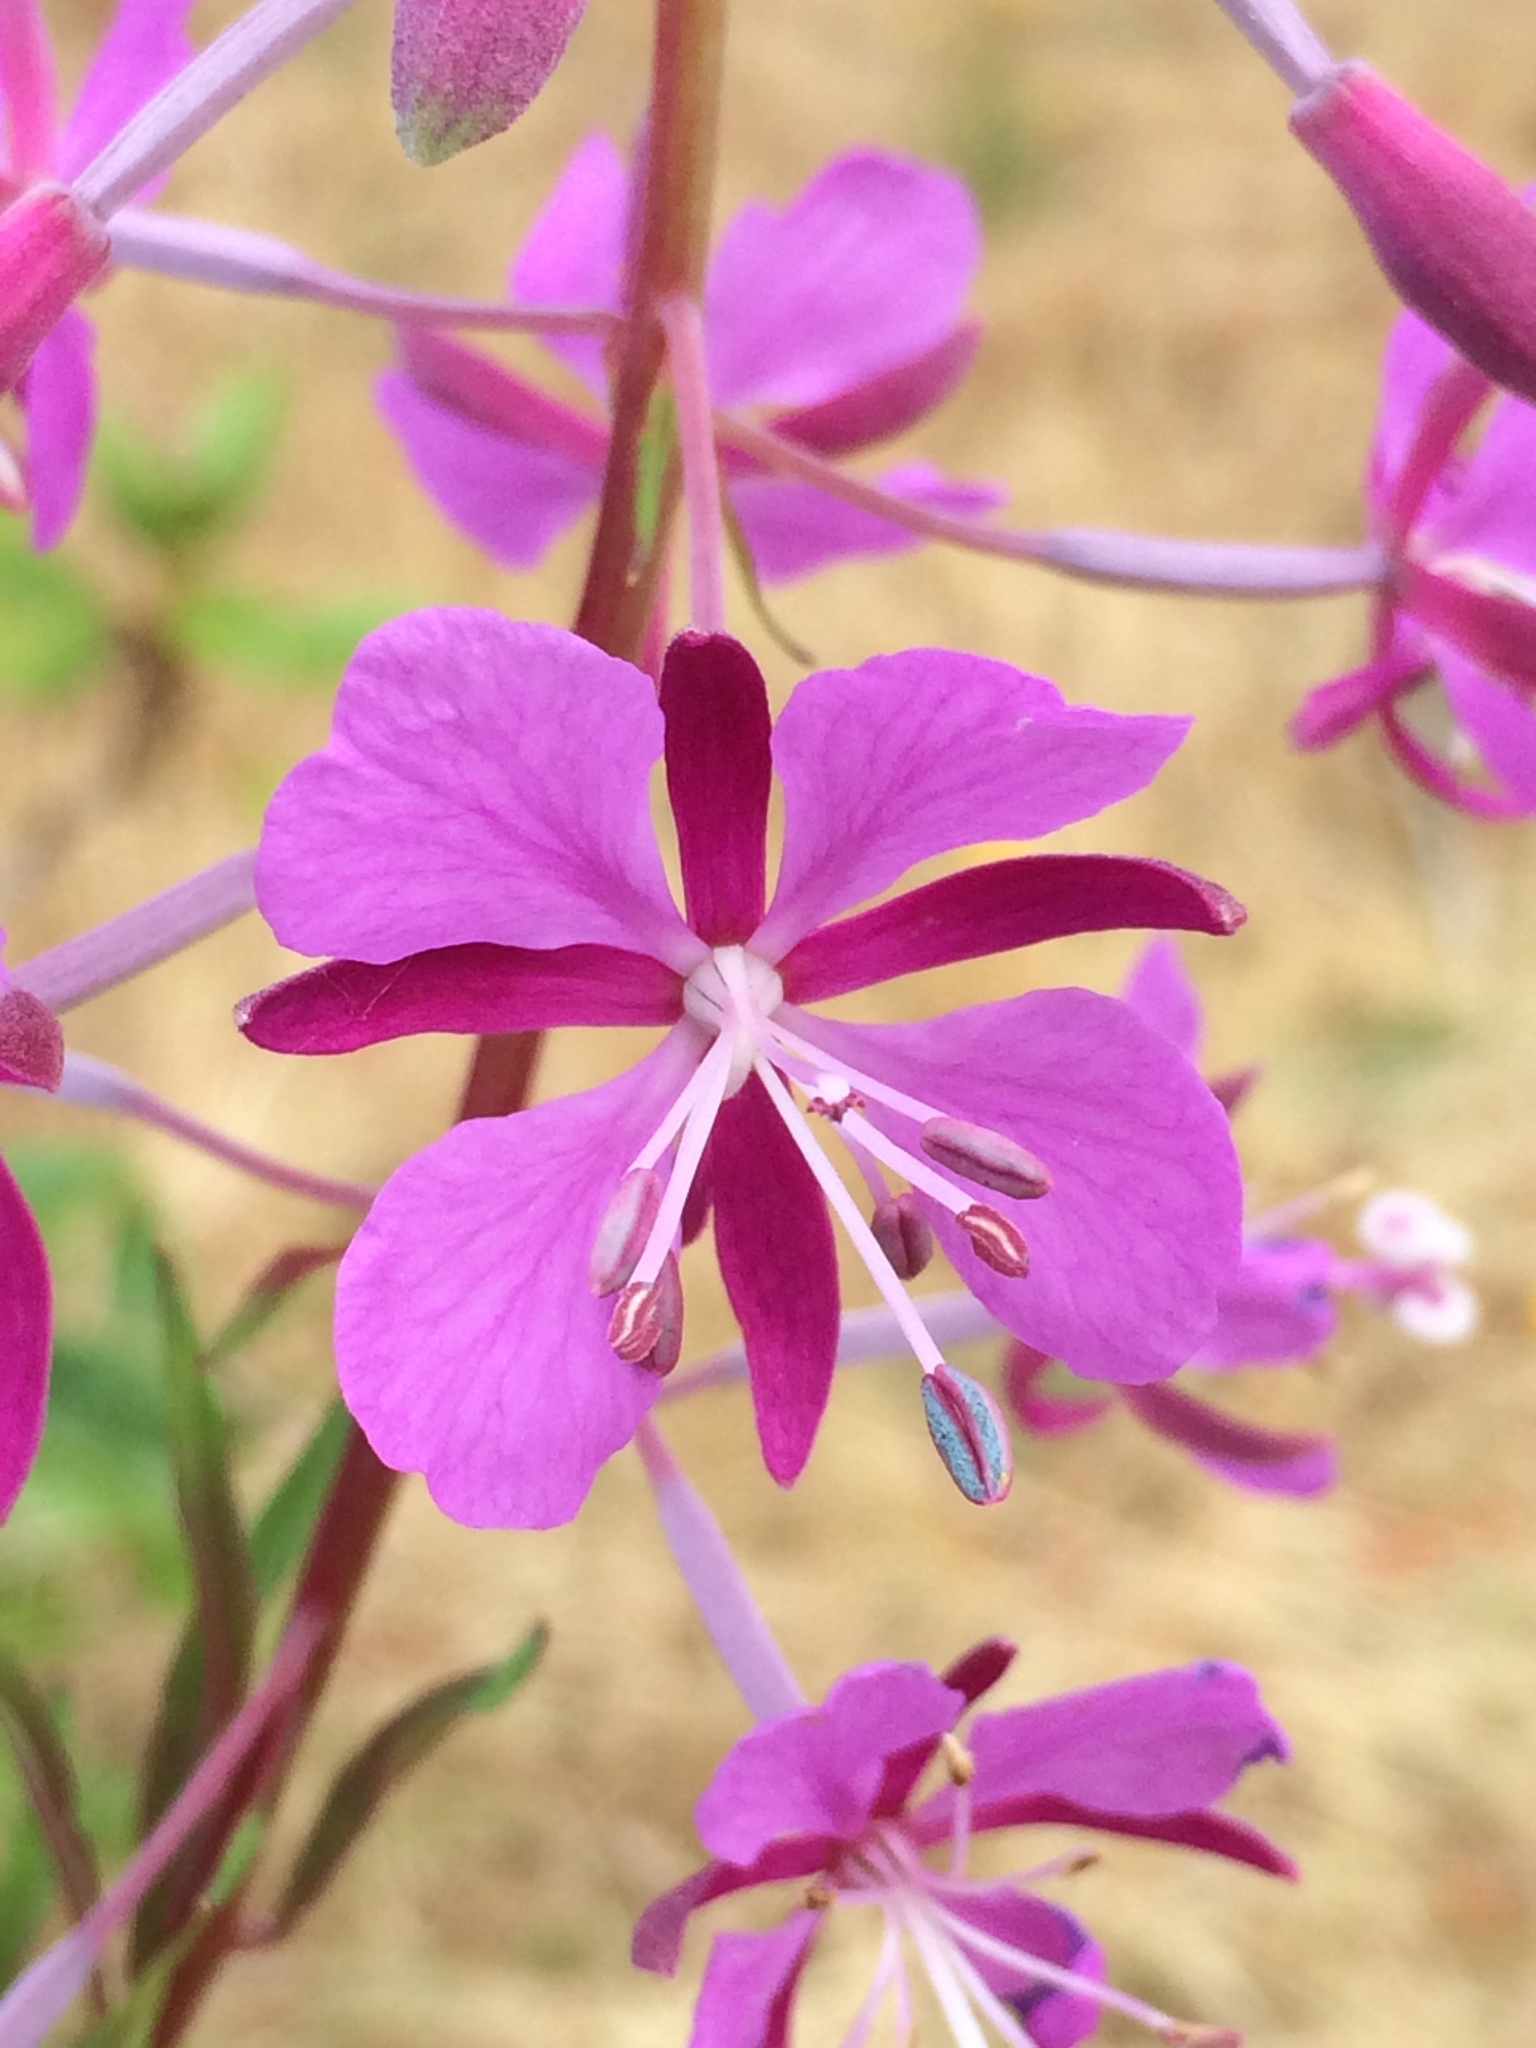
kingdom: Plantae
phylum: Tracheophyta
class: Magnoliopsida
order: Myrtales
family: Onagraceae
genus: Chamaenerion
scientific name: Chamaenerion angustifolium
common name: Fireweed
